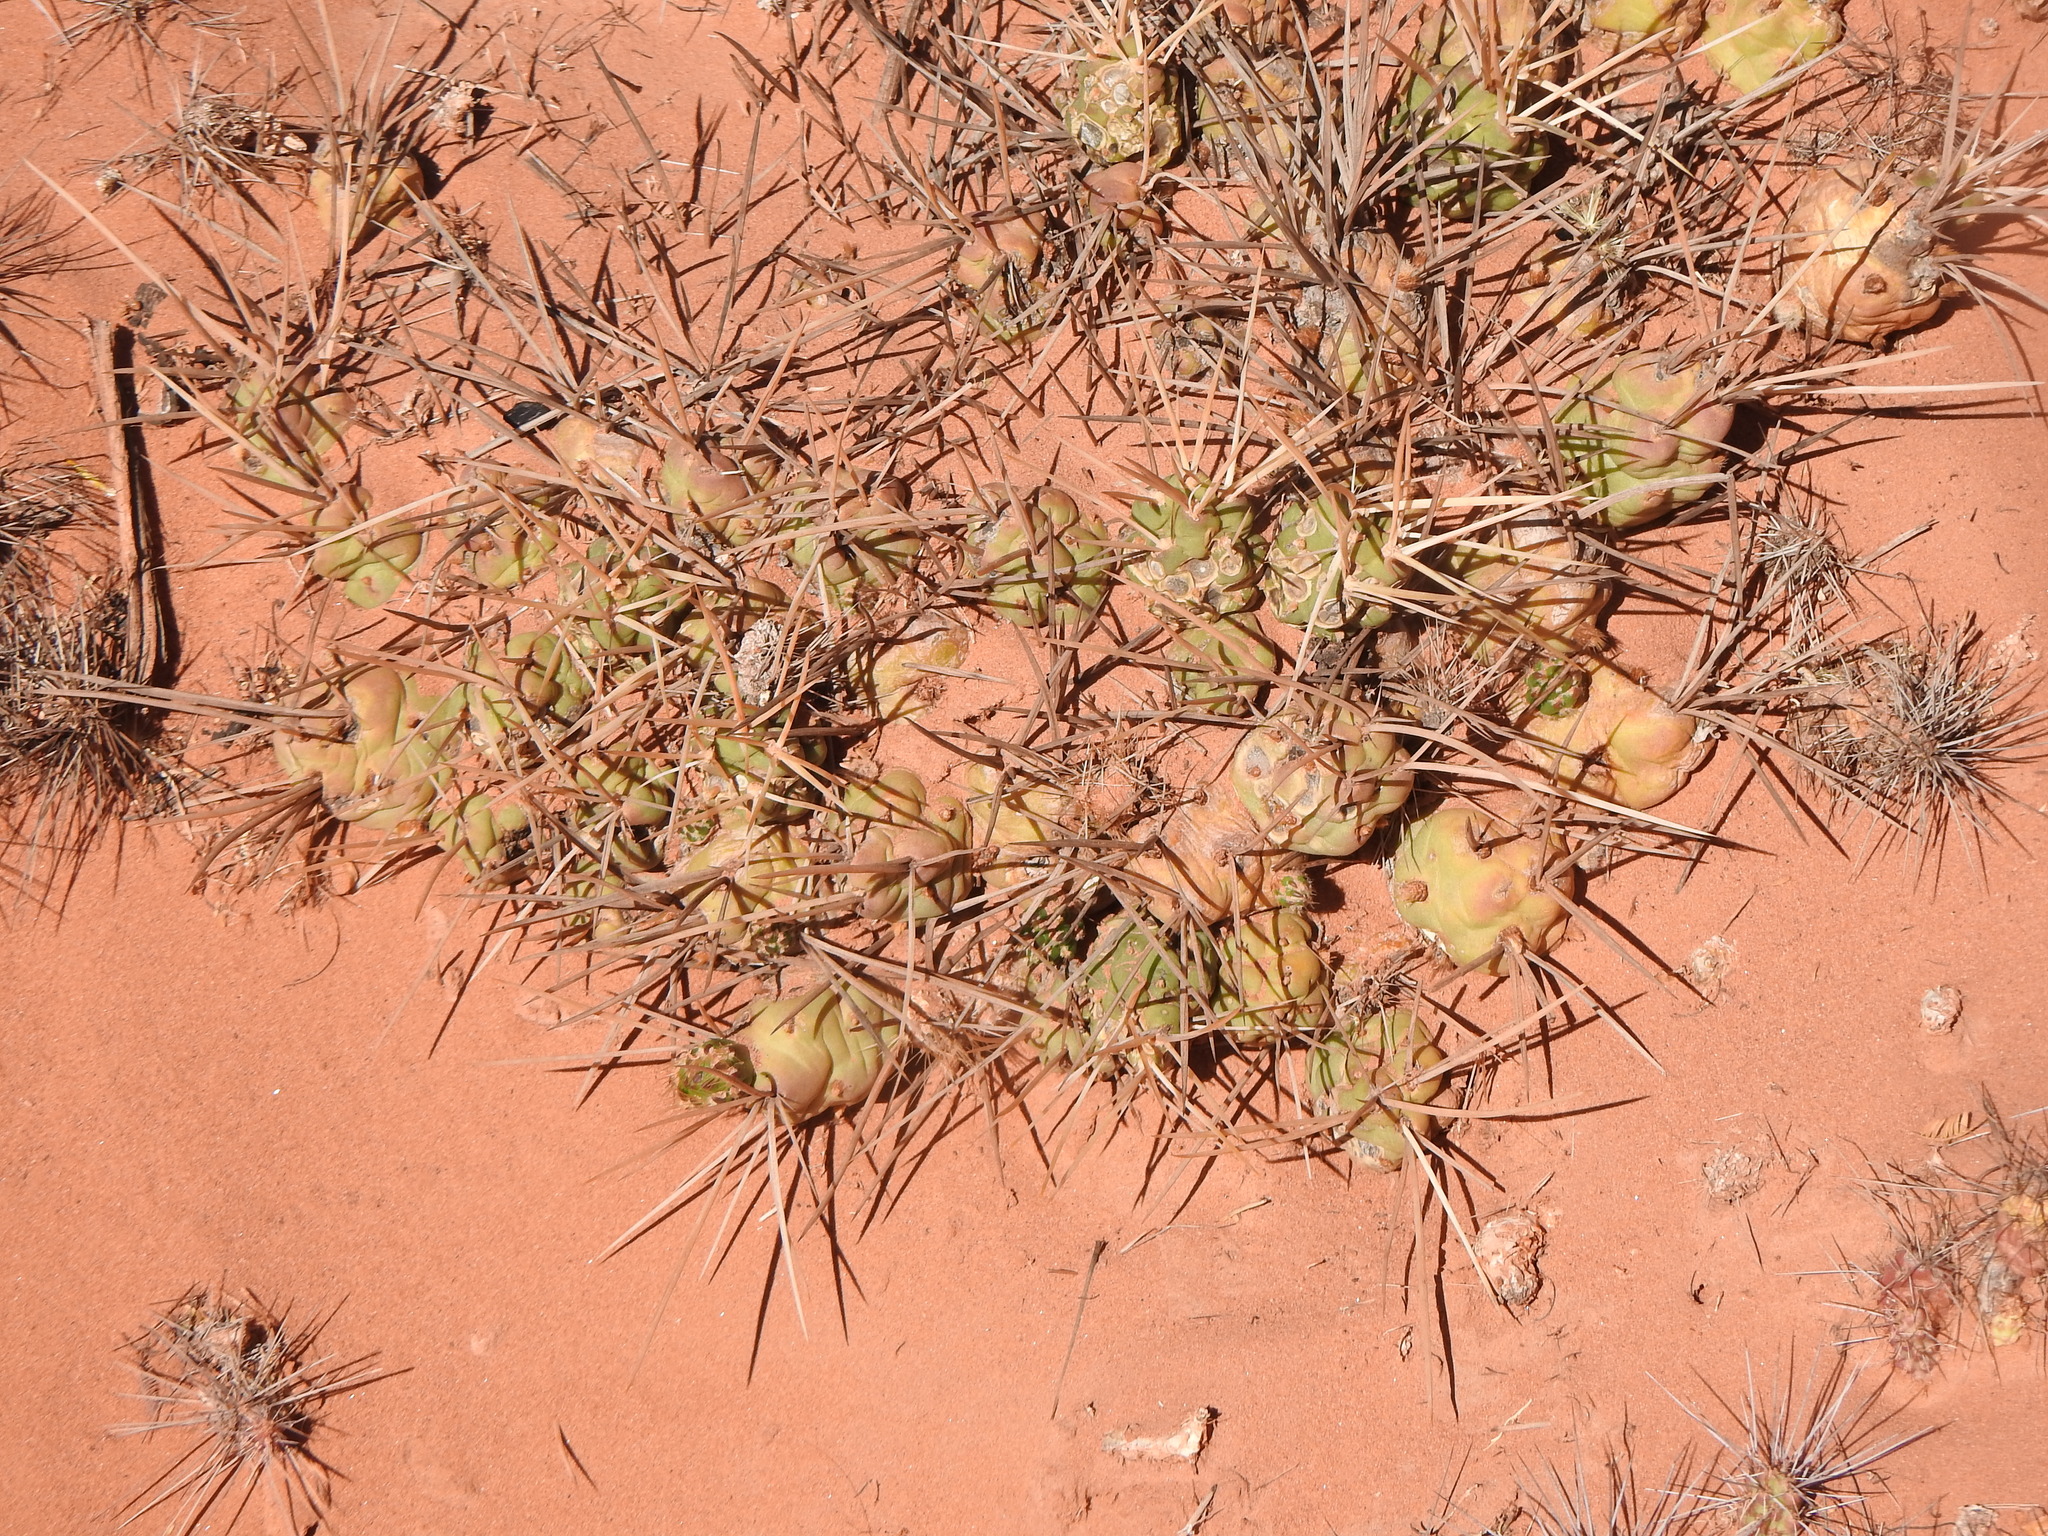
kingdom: Plantae
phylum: Tracheophyta
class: Magnoliopsida
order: Caryophyllales
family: Cactaceae
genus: Cumulopuntia
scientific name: Cumulopuntia boliviana
